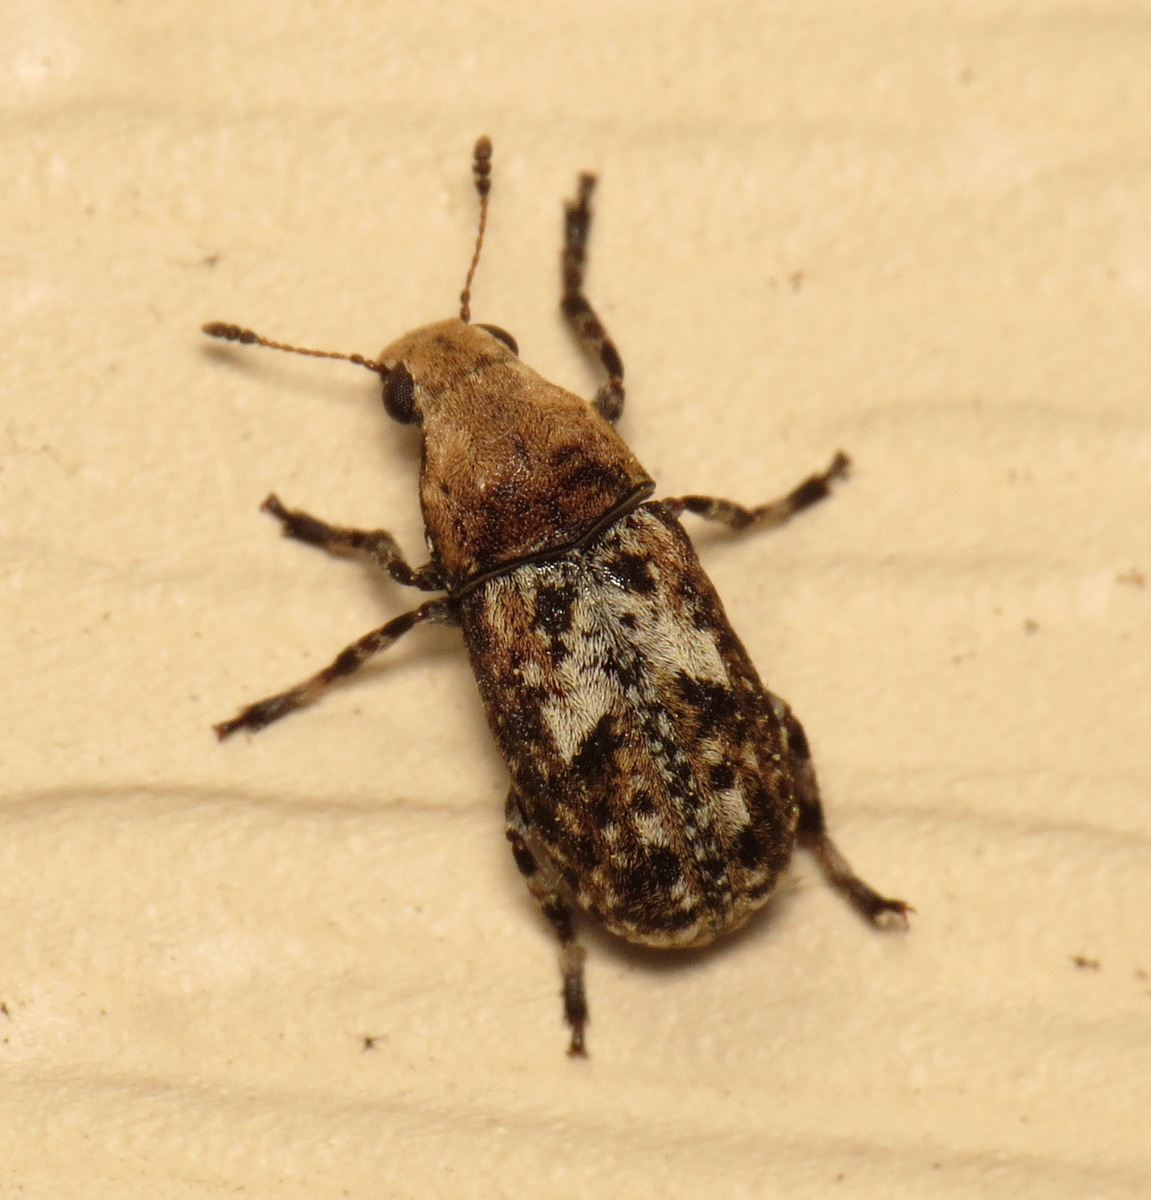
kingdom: Animalia
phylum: Arthropoda
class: Insecta
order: Coleoptera
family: Anthribidae
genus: Euparius
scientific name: Euparius marmoreus
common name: Marbled fungus weevil
